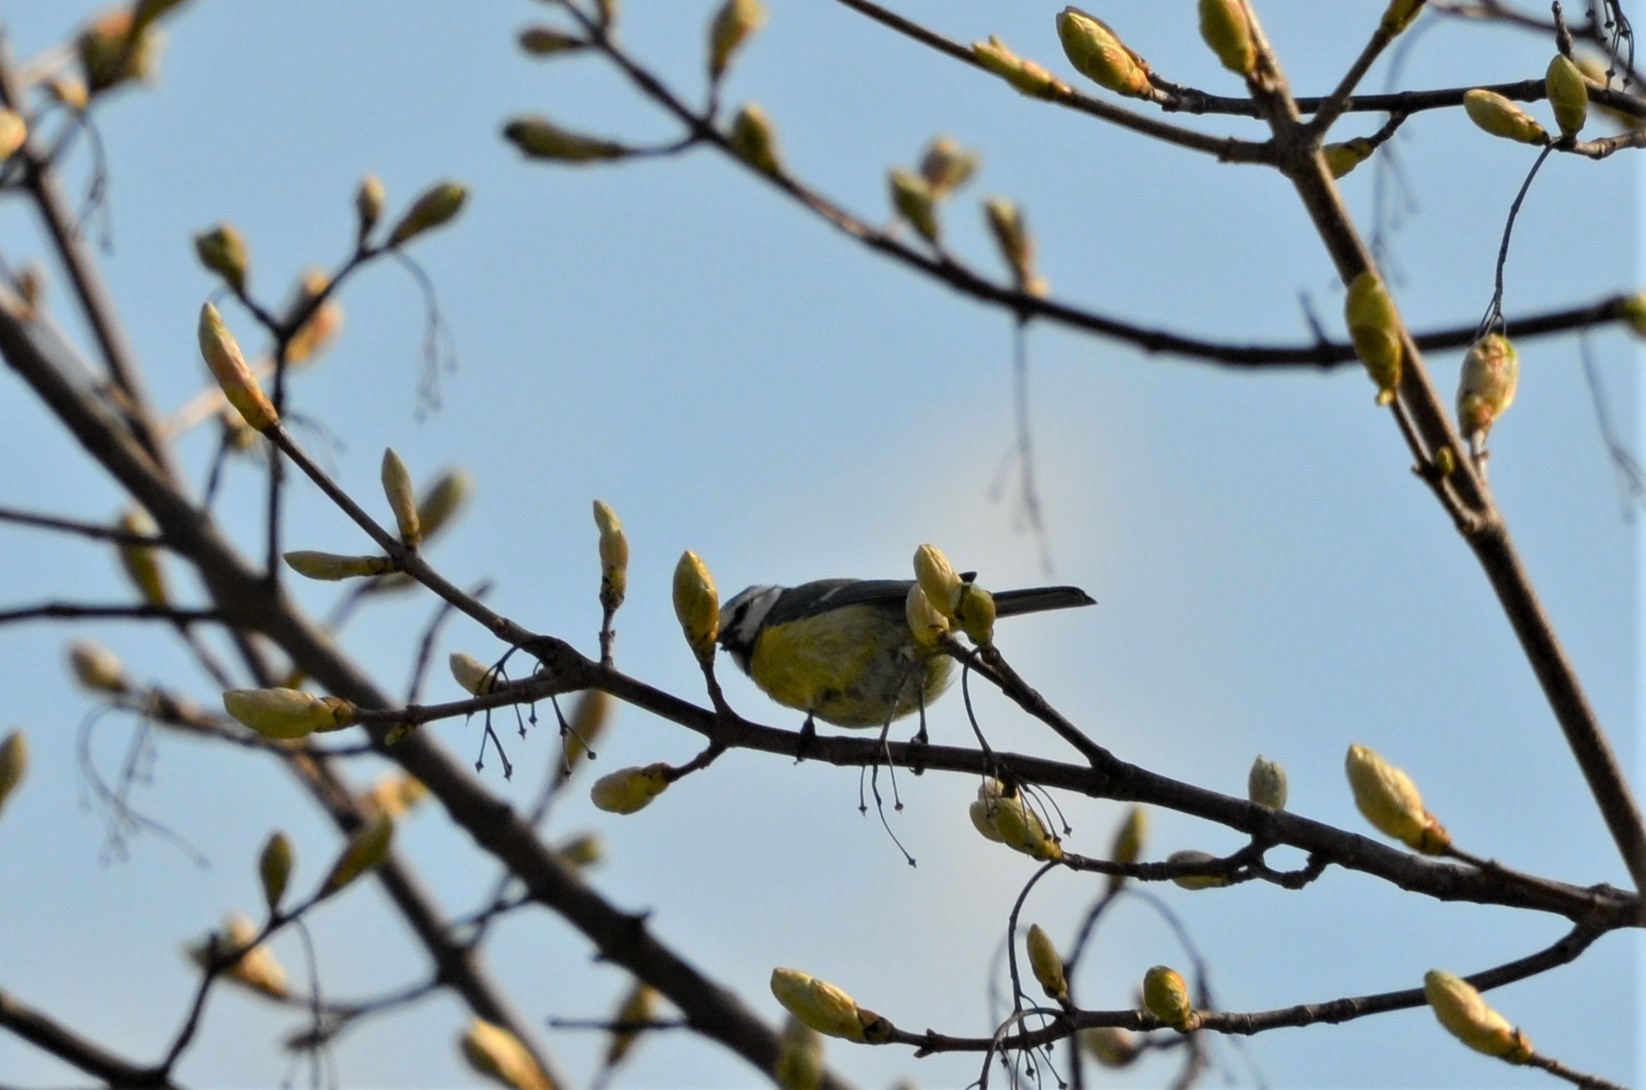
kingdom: Animalia
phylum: Chordata
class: Aves
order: Passeriformes
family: Paridae
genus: Cyanistes
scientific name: Cyanistes caeruleus
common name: Eurasian blue tit
